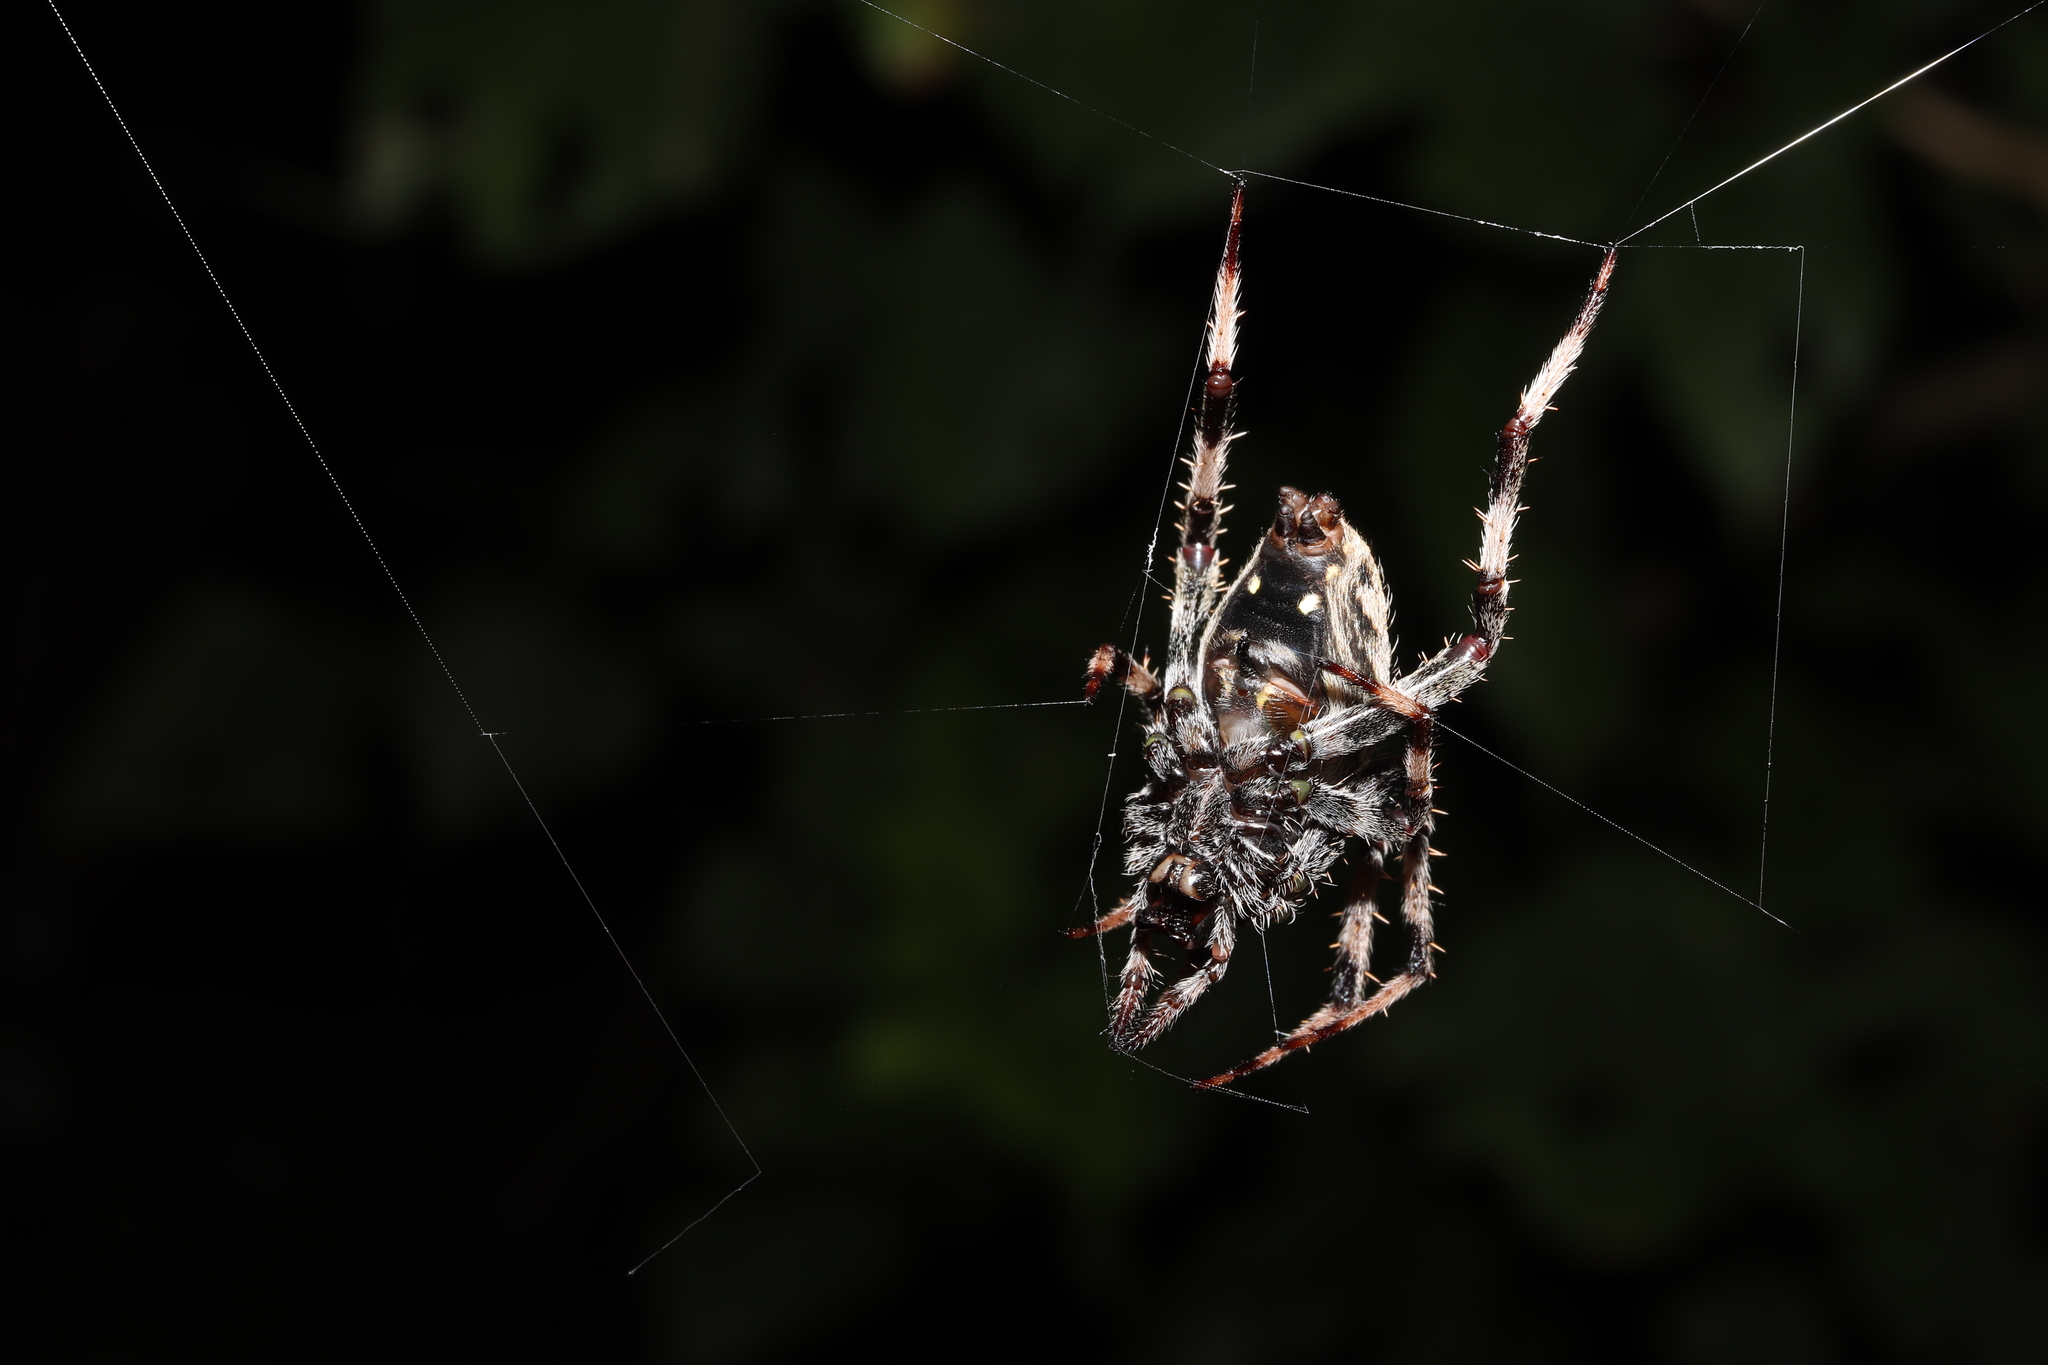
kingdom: Animalia
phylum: Arthropoda
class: Arachnida
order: Araneae
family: Araneidae
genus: Neoscona
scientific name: Neoscona scylla
